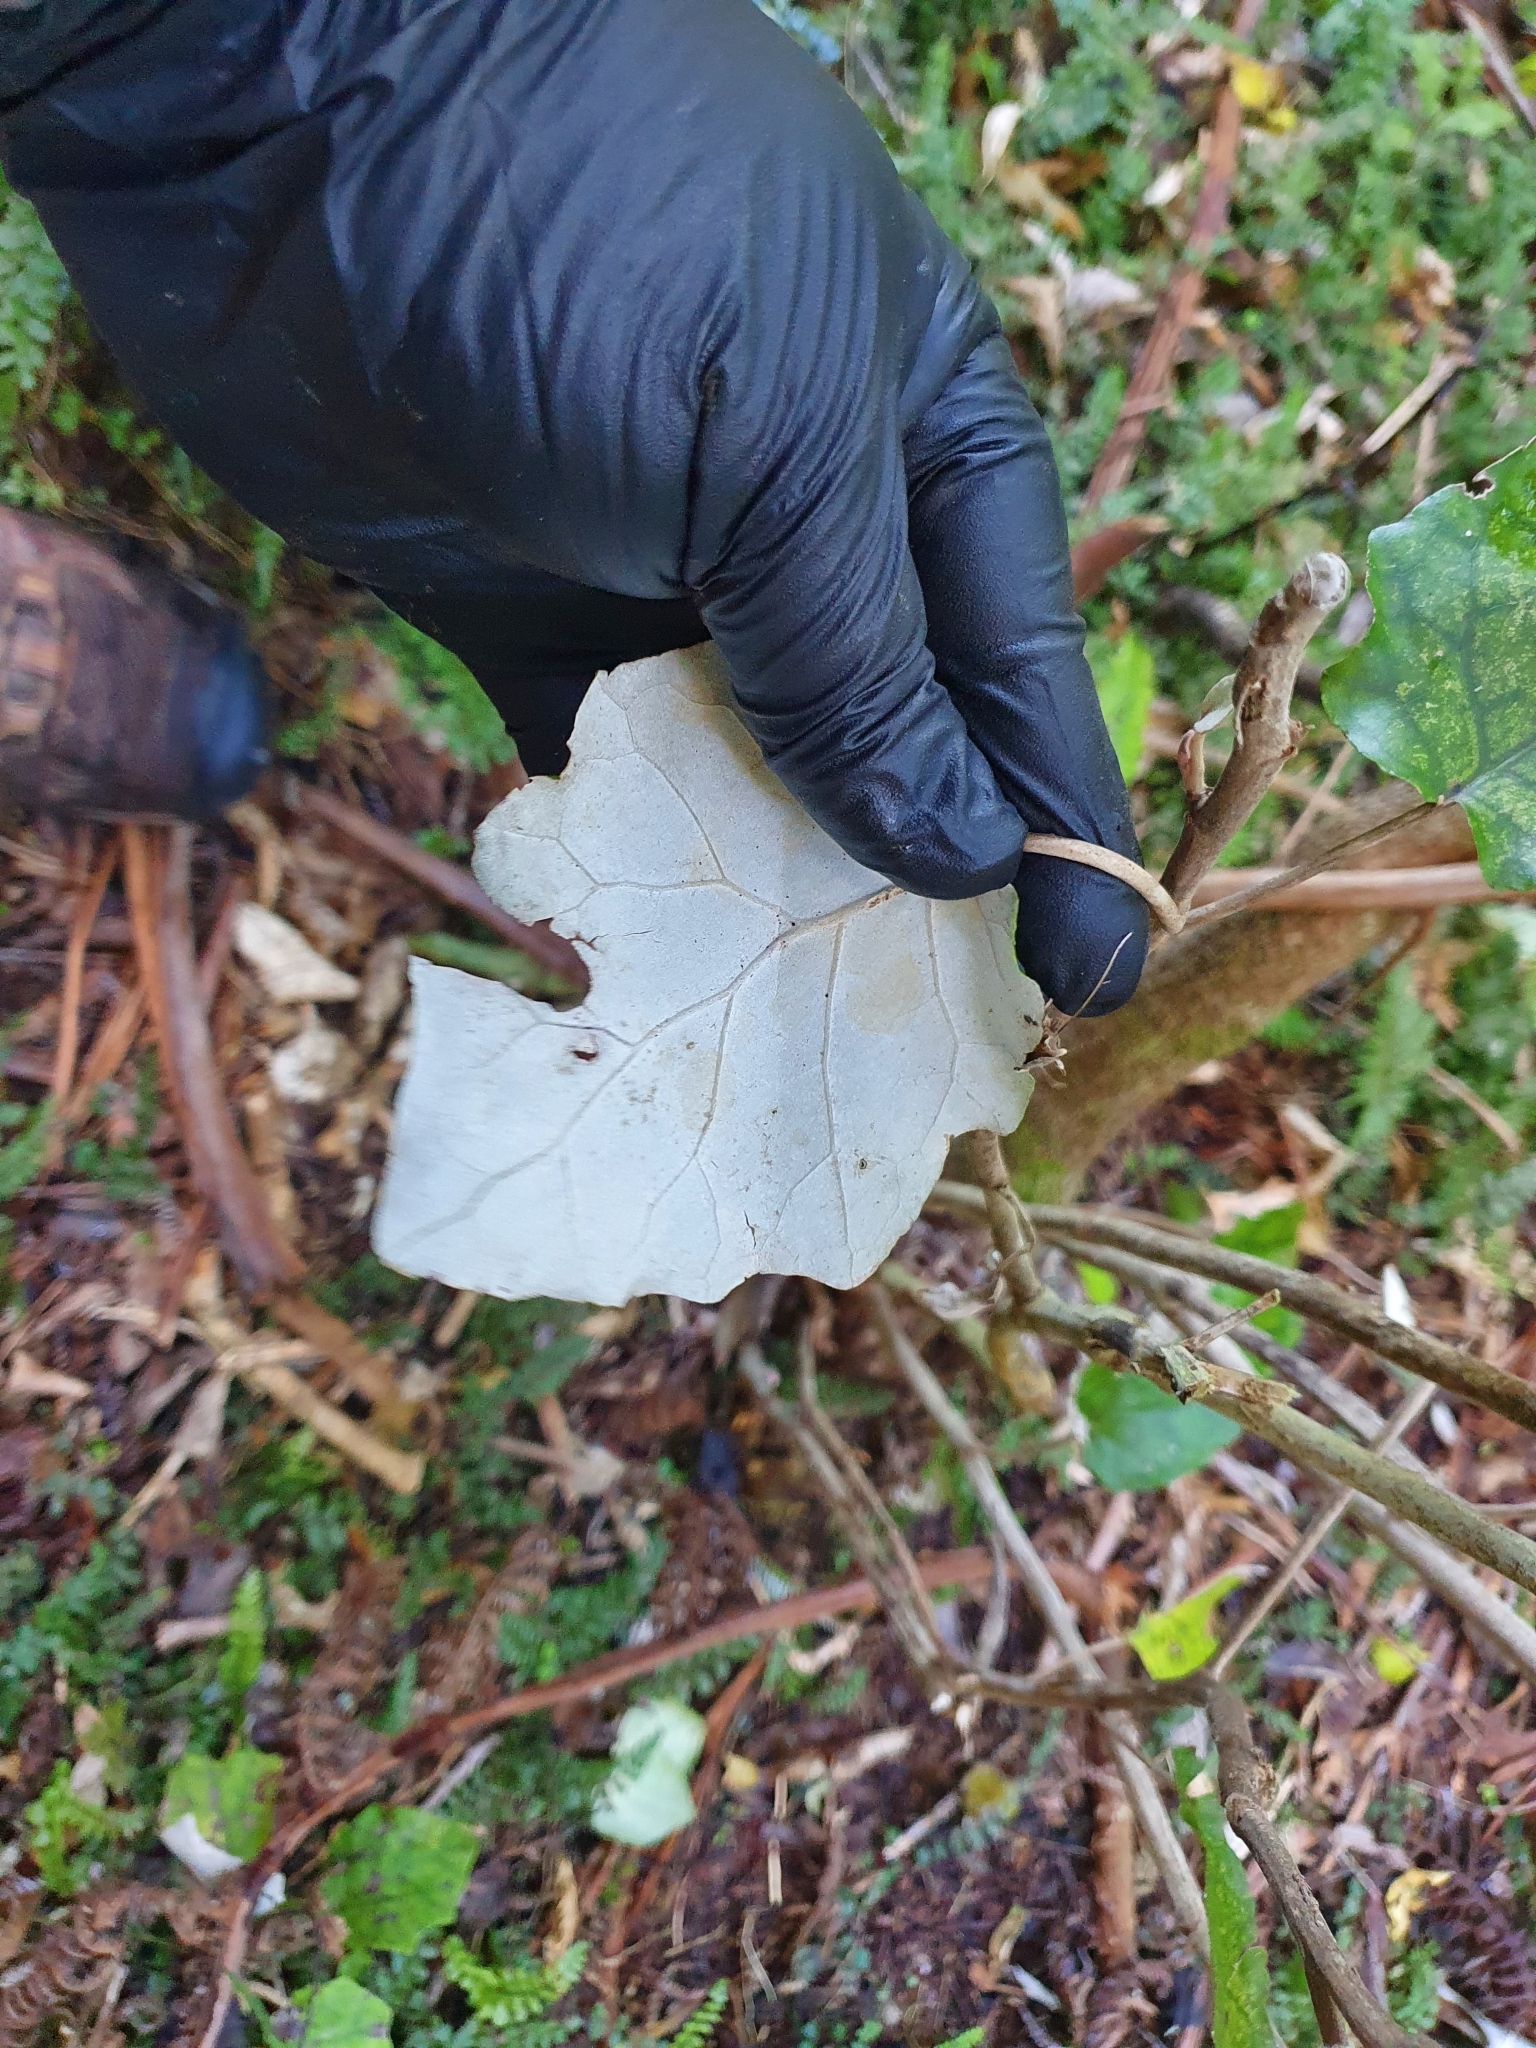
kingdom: Plantae
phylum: Tracheophyta
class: Magnoliopsida
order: Asterales
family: Asteraceae
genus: Brachyglottis
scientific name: Brachyglottis repanda
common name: Hedge ragwort
